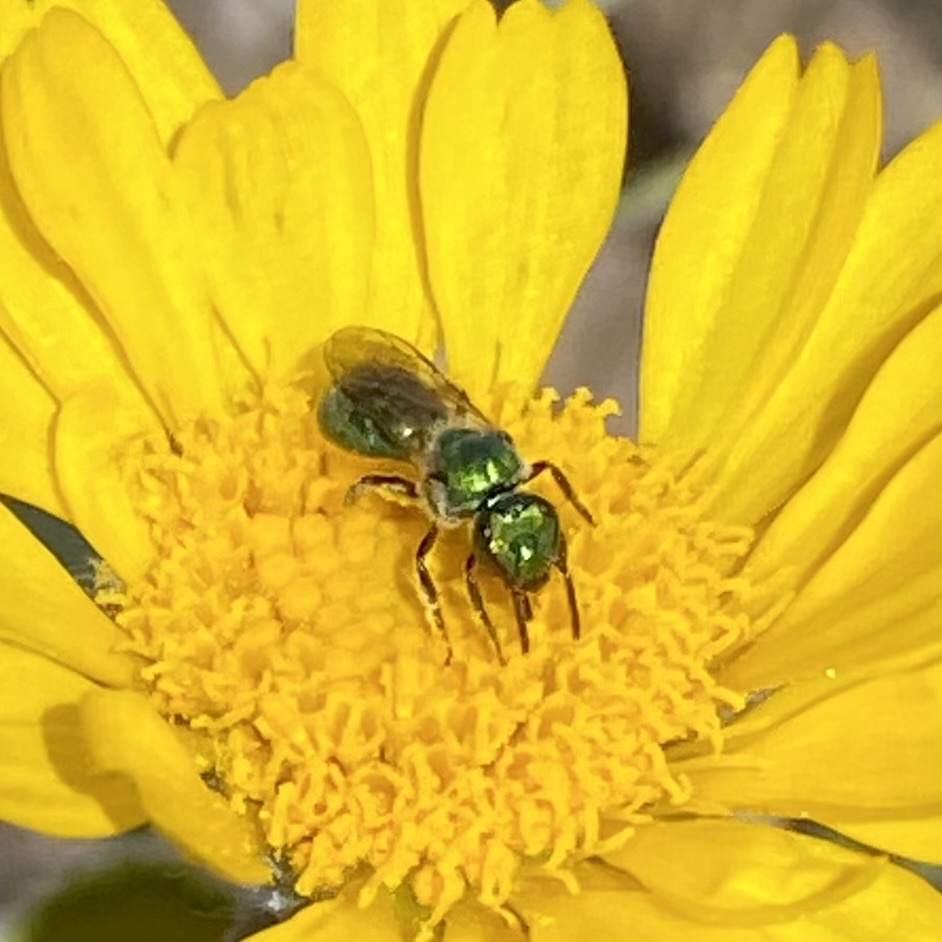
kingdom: Animalia
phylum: Arthropoda
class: Insecta
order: Hymenoptera
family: Halictidae
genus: Augochlorella
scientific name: Augochlorella
